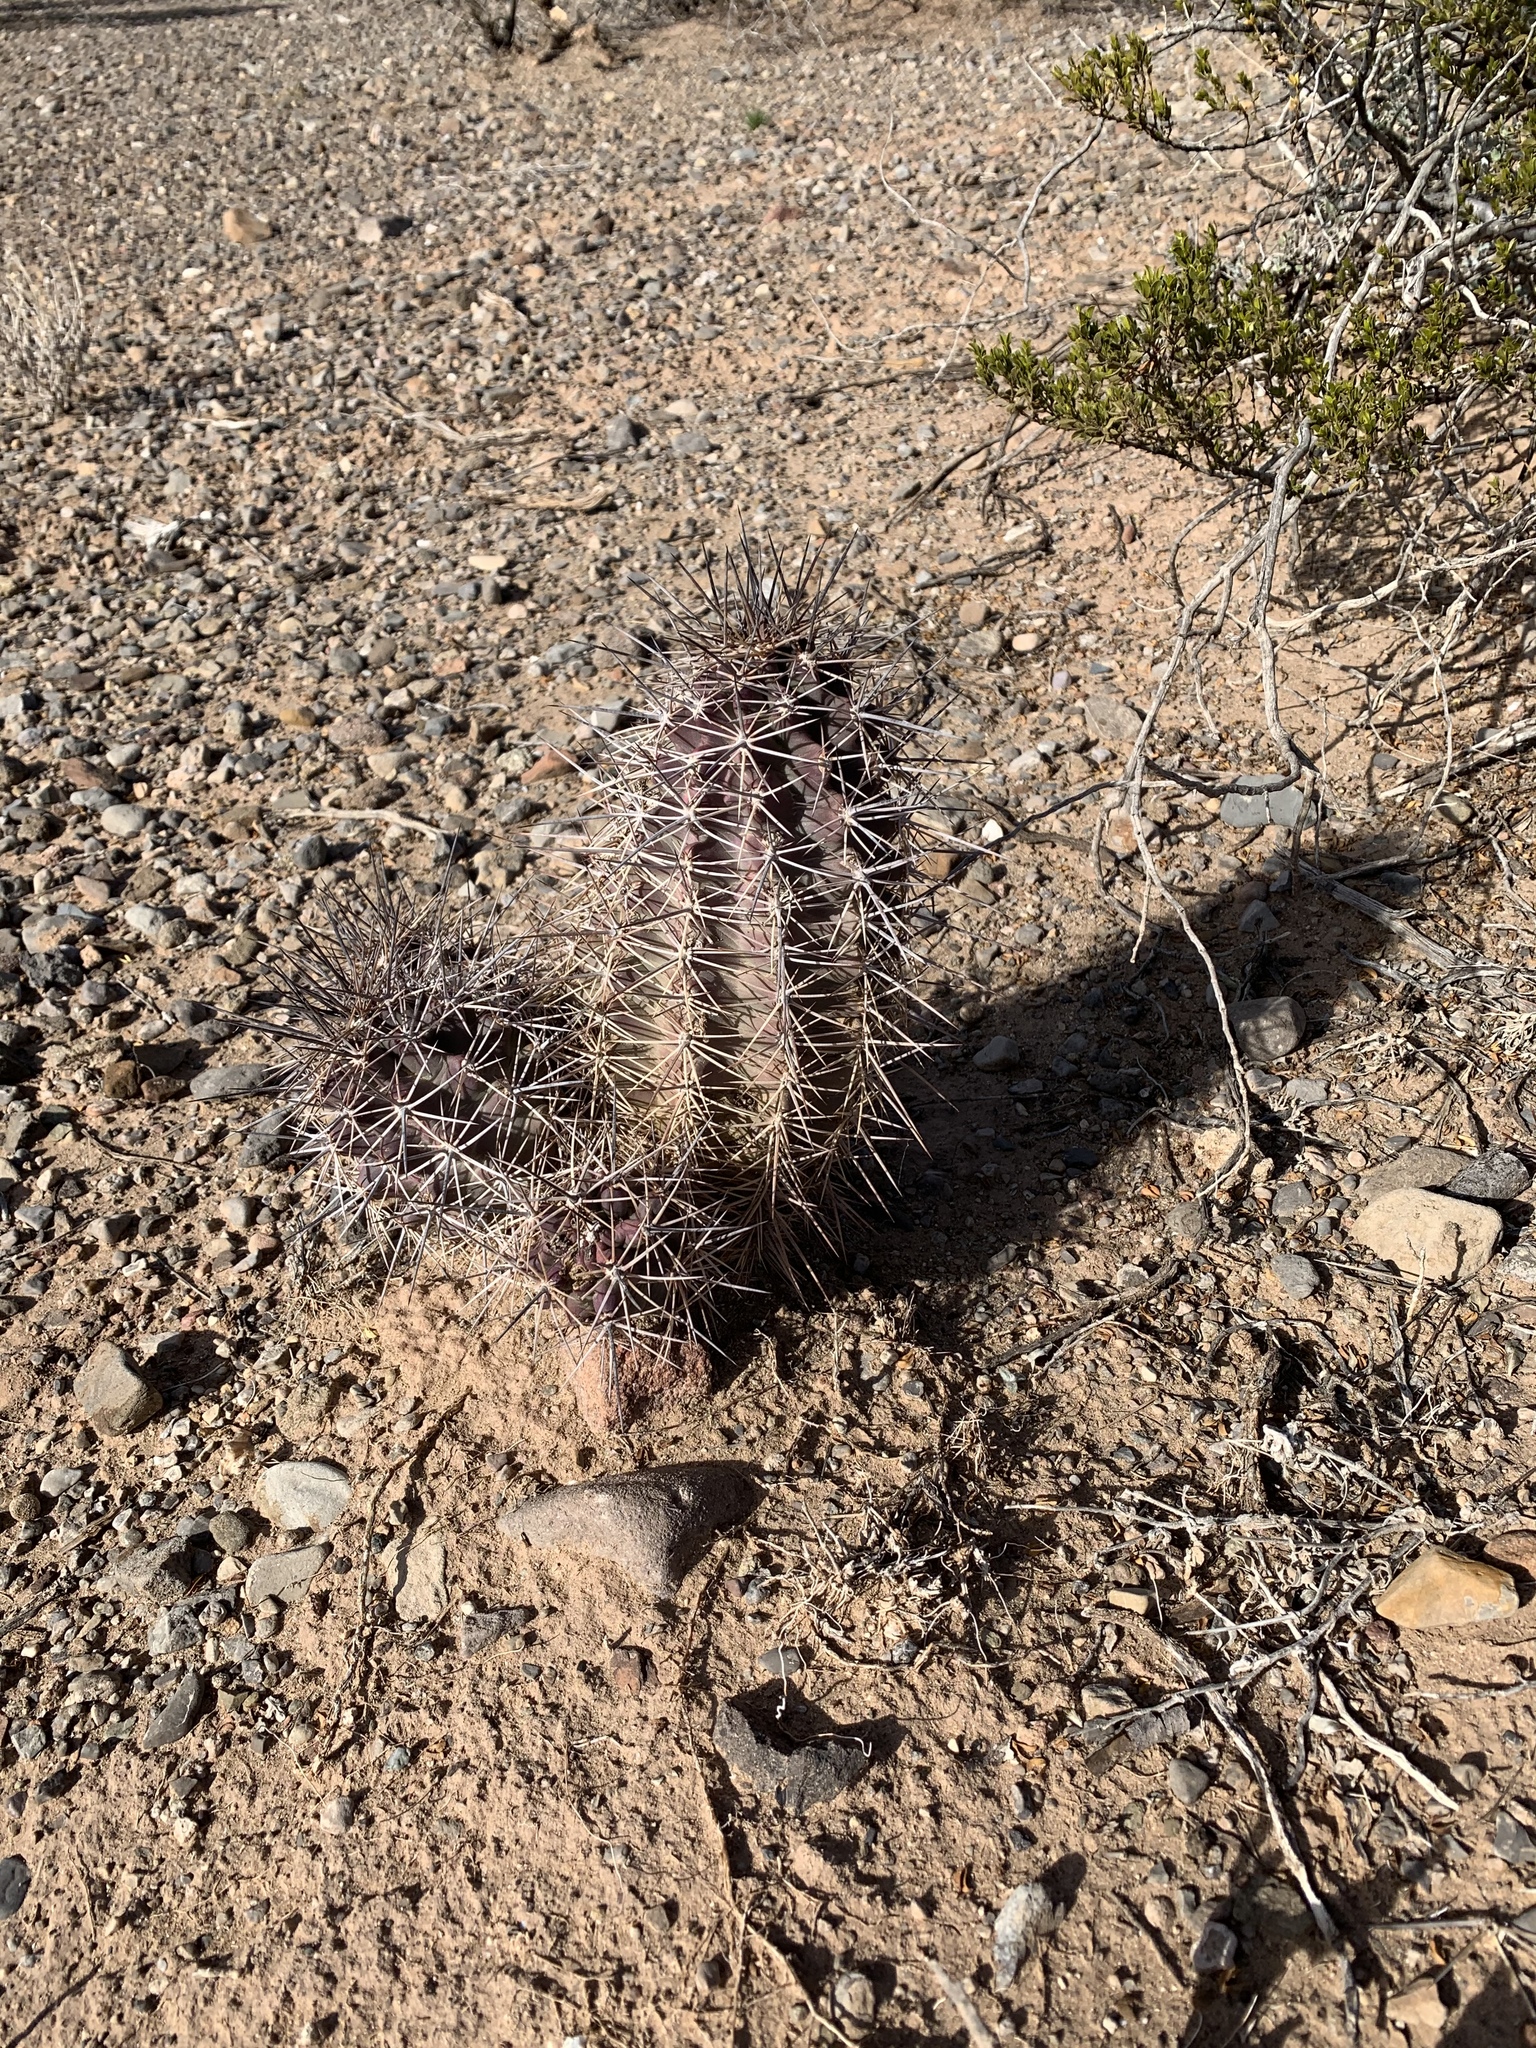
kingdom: Plantae
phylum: Tracheophyta
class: Magnoliopsida
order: Caryophyllales
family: Cactaceae
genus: Echinocereus
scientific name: Echinocereus coccineus
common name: Scarlet hedgehog cactus
